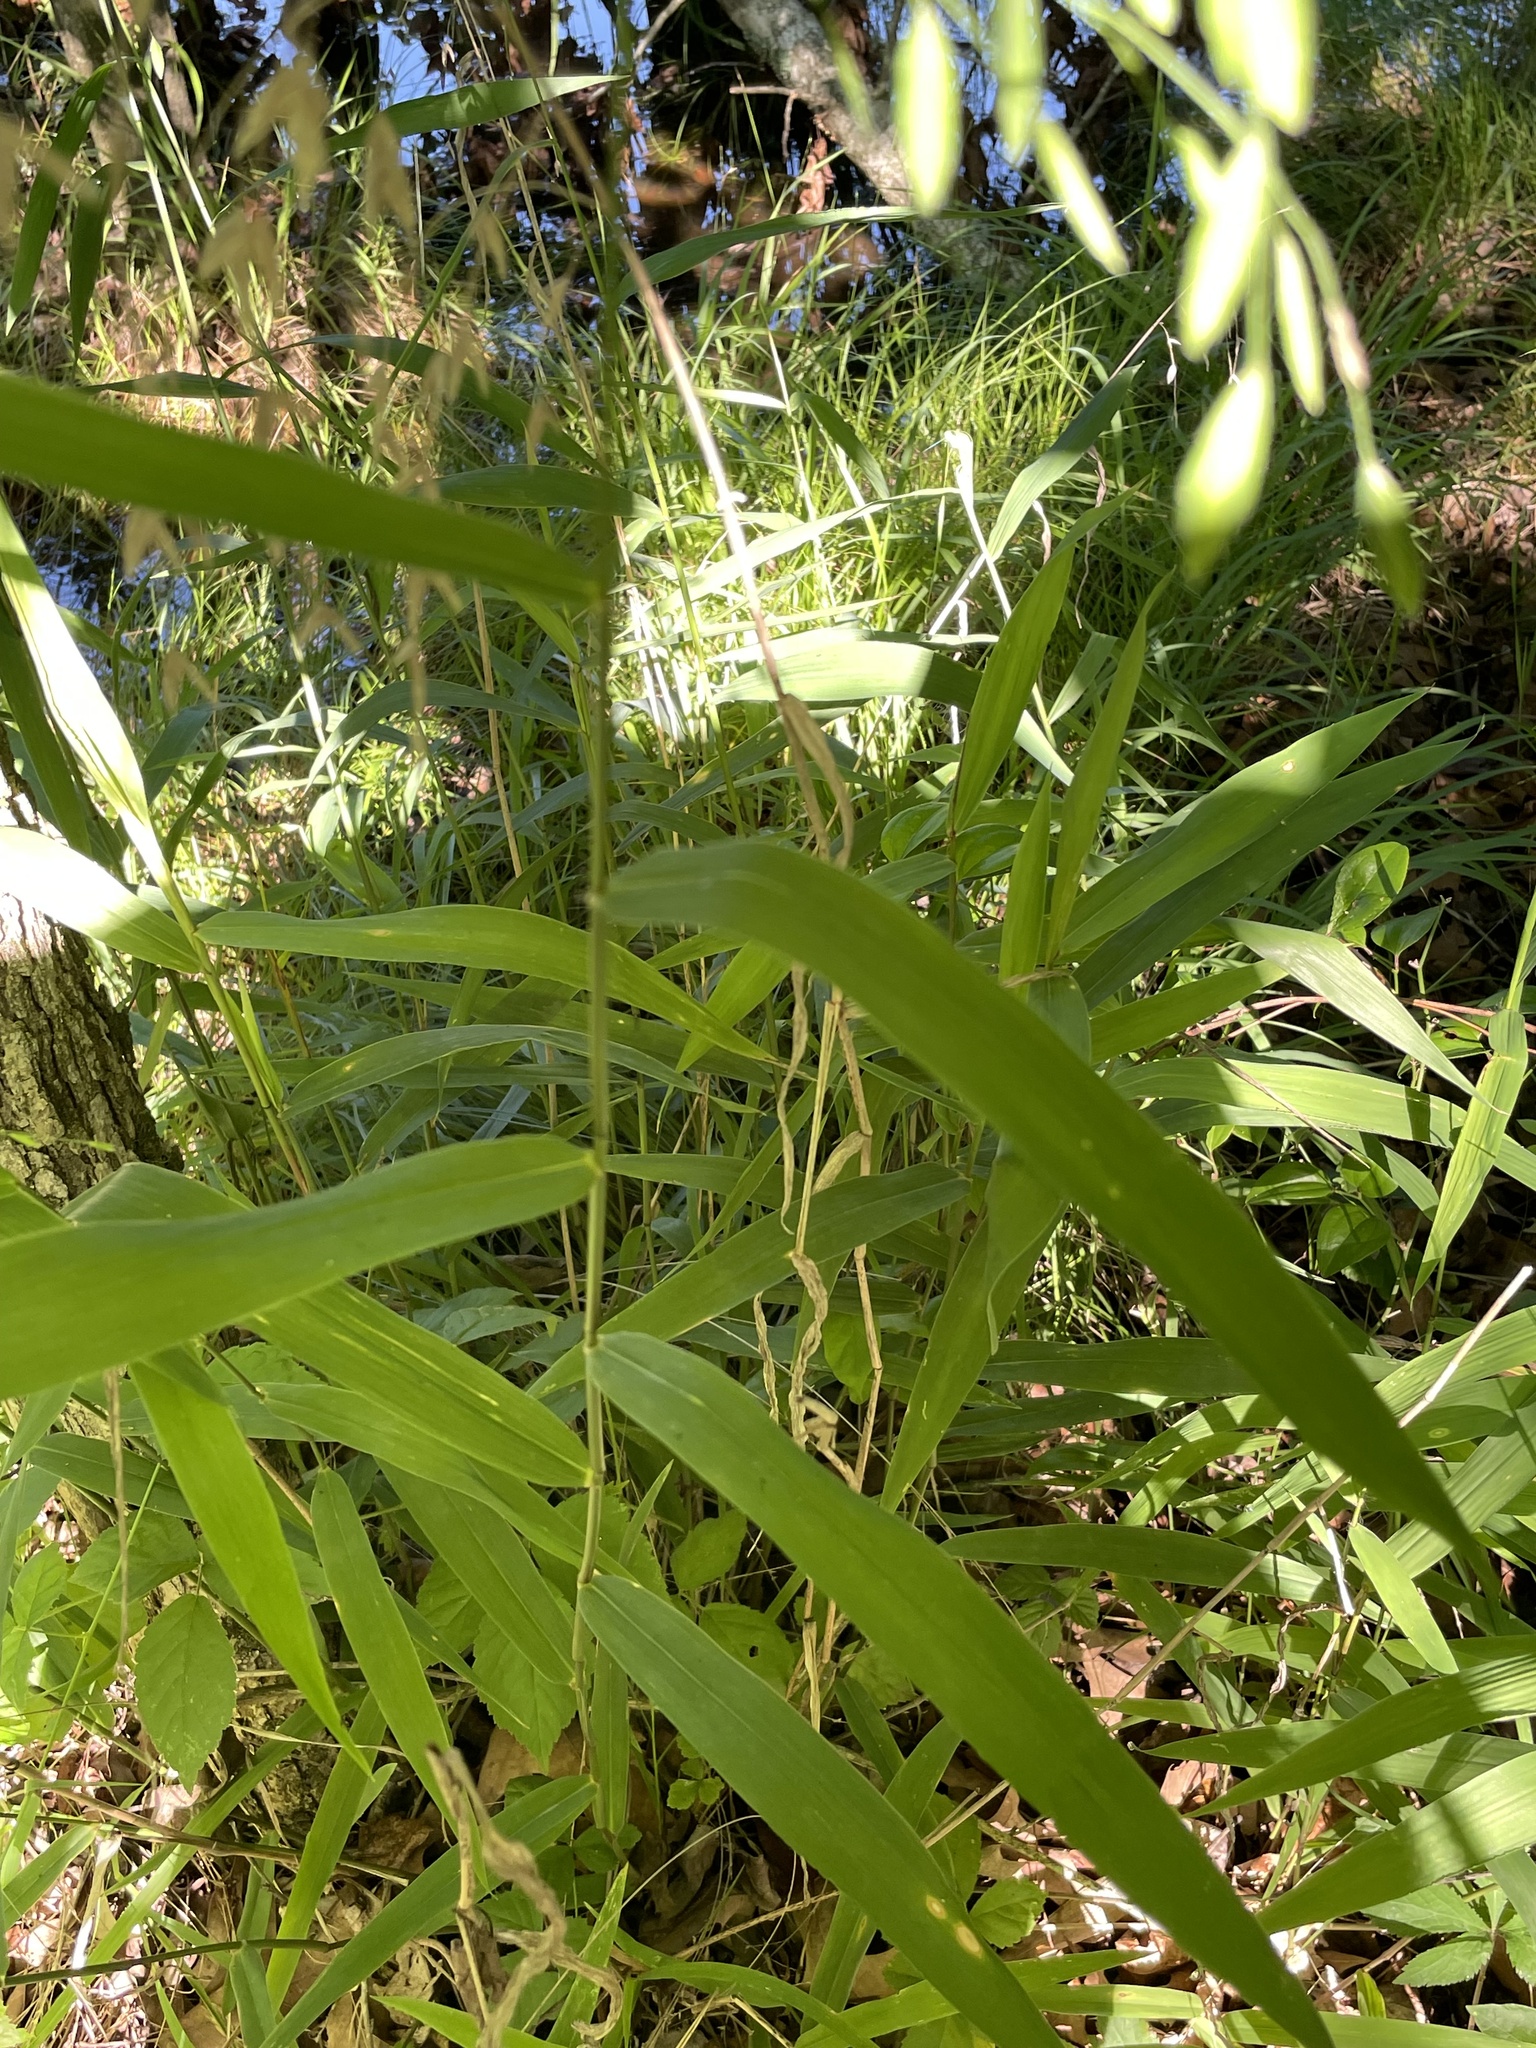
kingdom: Plantae
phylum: Tracheophyta
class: Liliopsida
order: Poales
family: Poaceae
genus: Chasmanthium
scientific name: Chasmanthium latifolium
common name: Broad-leaved chasmanthium
